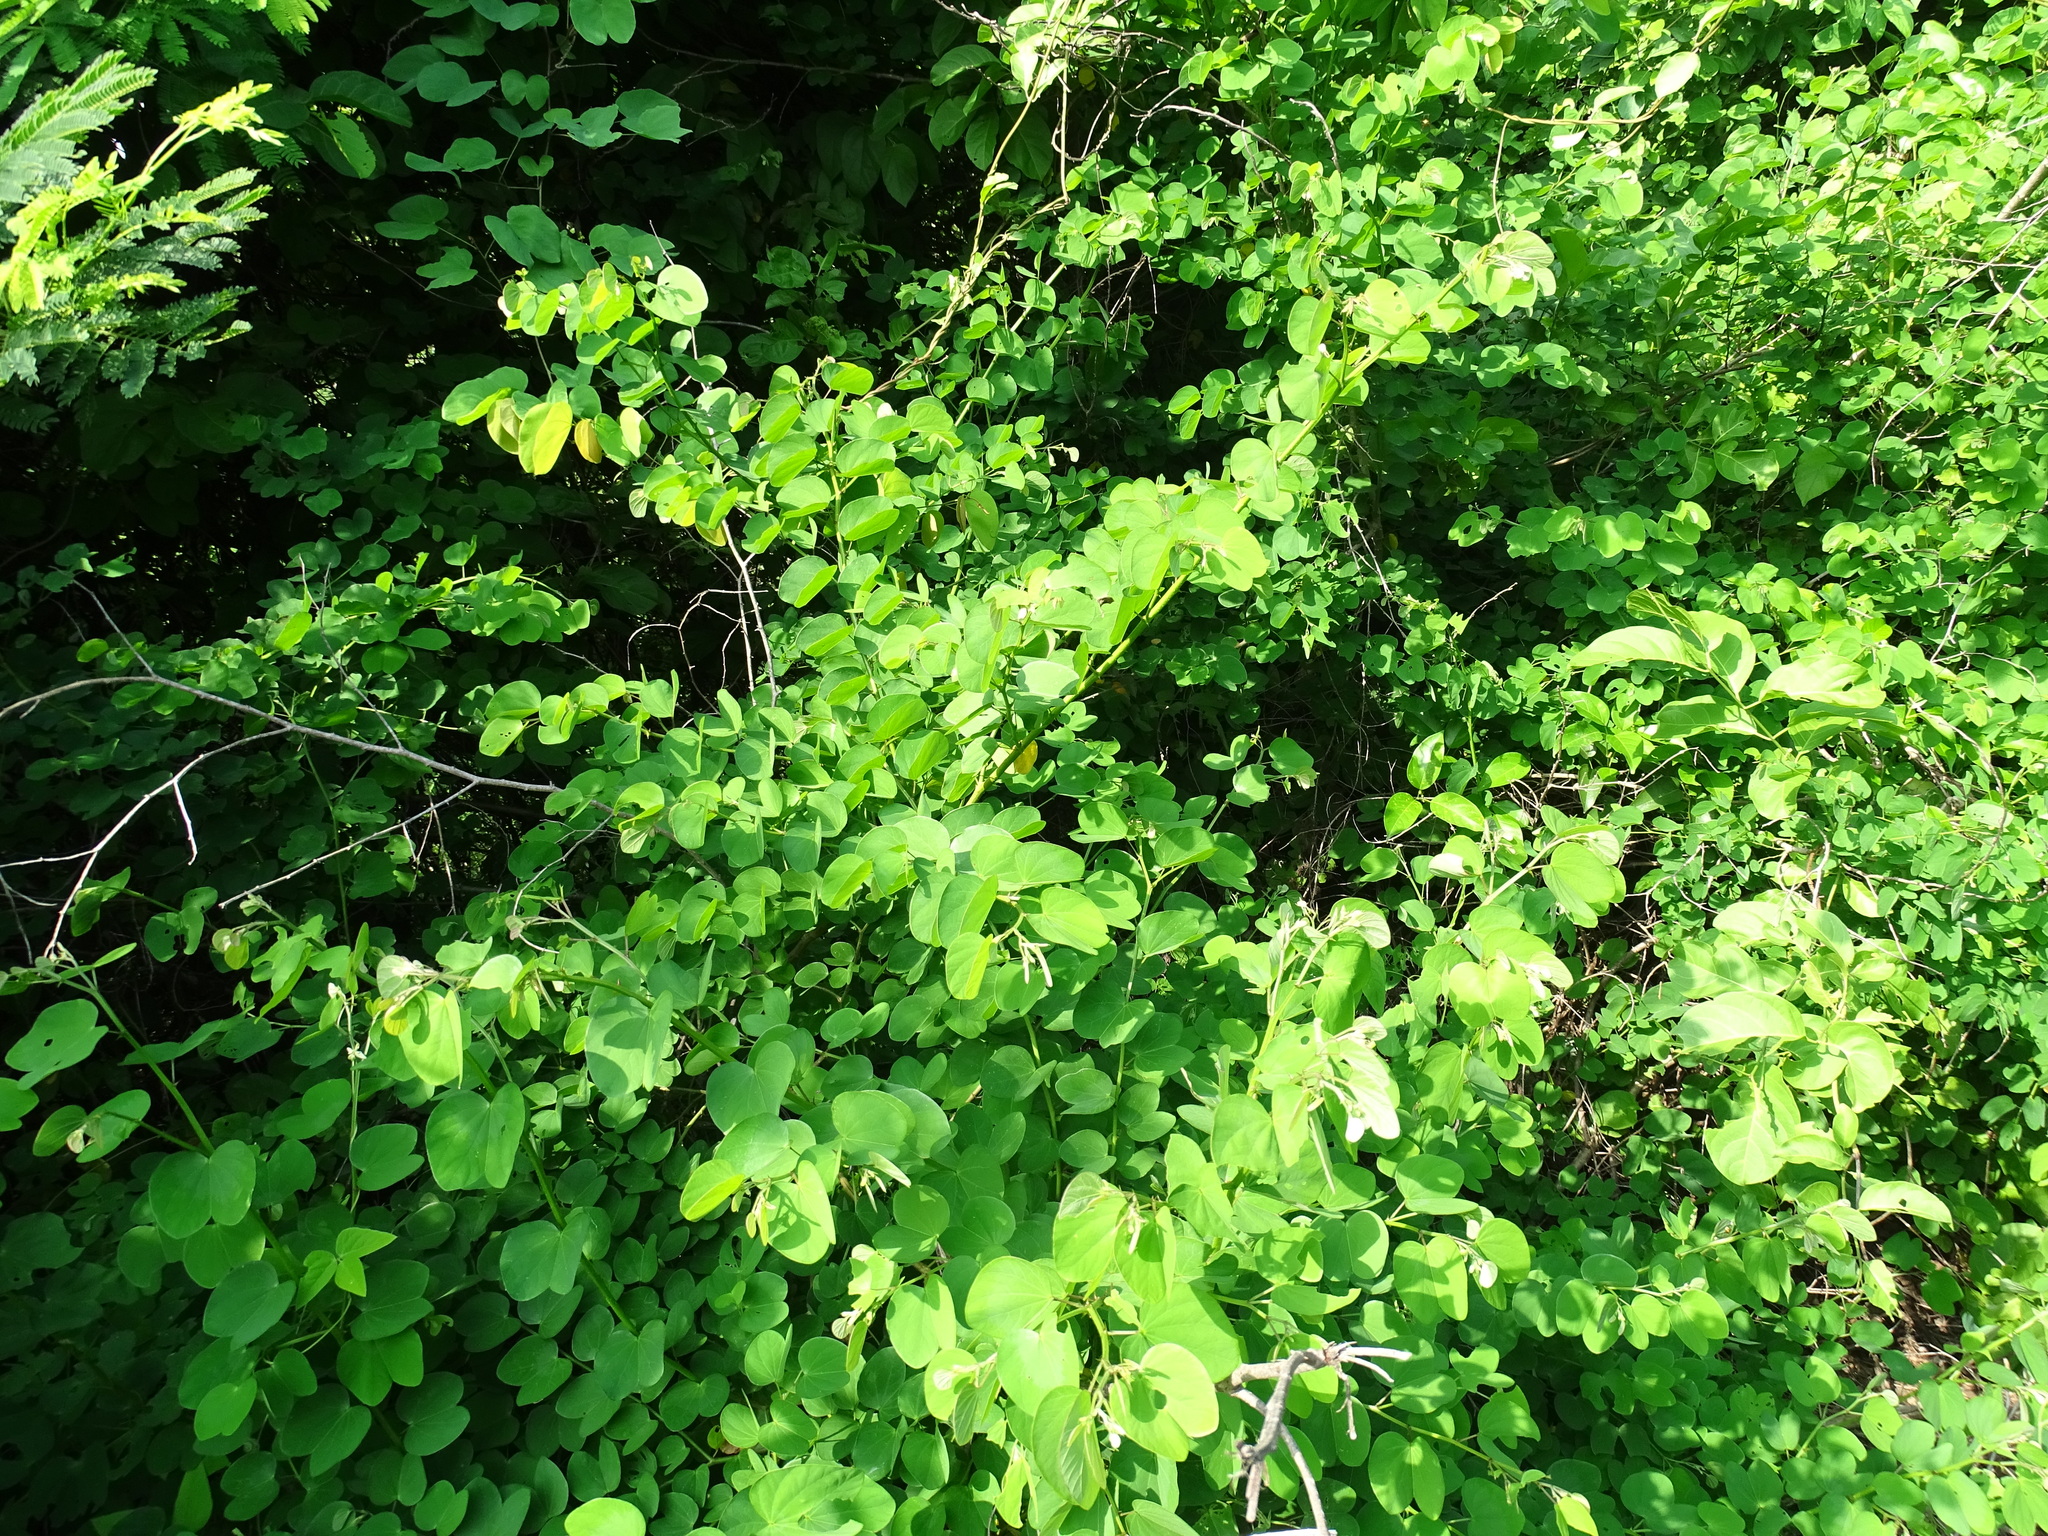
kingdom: Plantae
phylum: Tracheophyta
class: Magnoliopsida
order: Fabales
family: Fabaceae
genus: Bauhinia
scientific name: Bauhinia pauletia
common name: Railway-fence bauhinia
